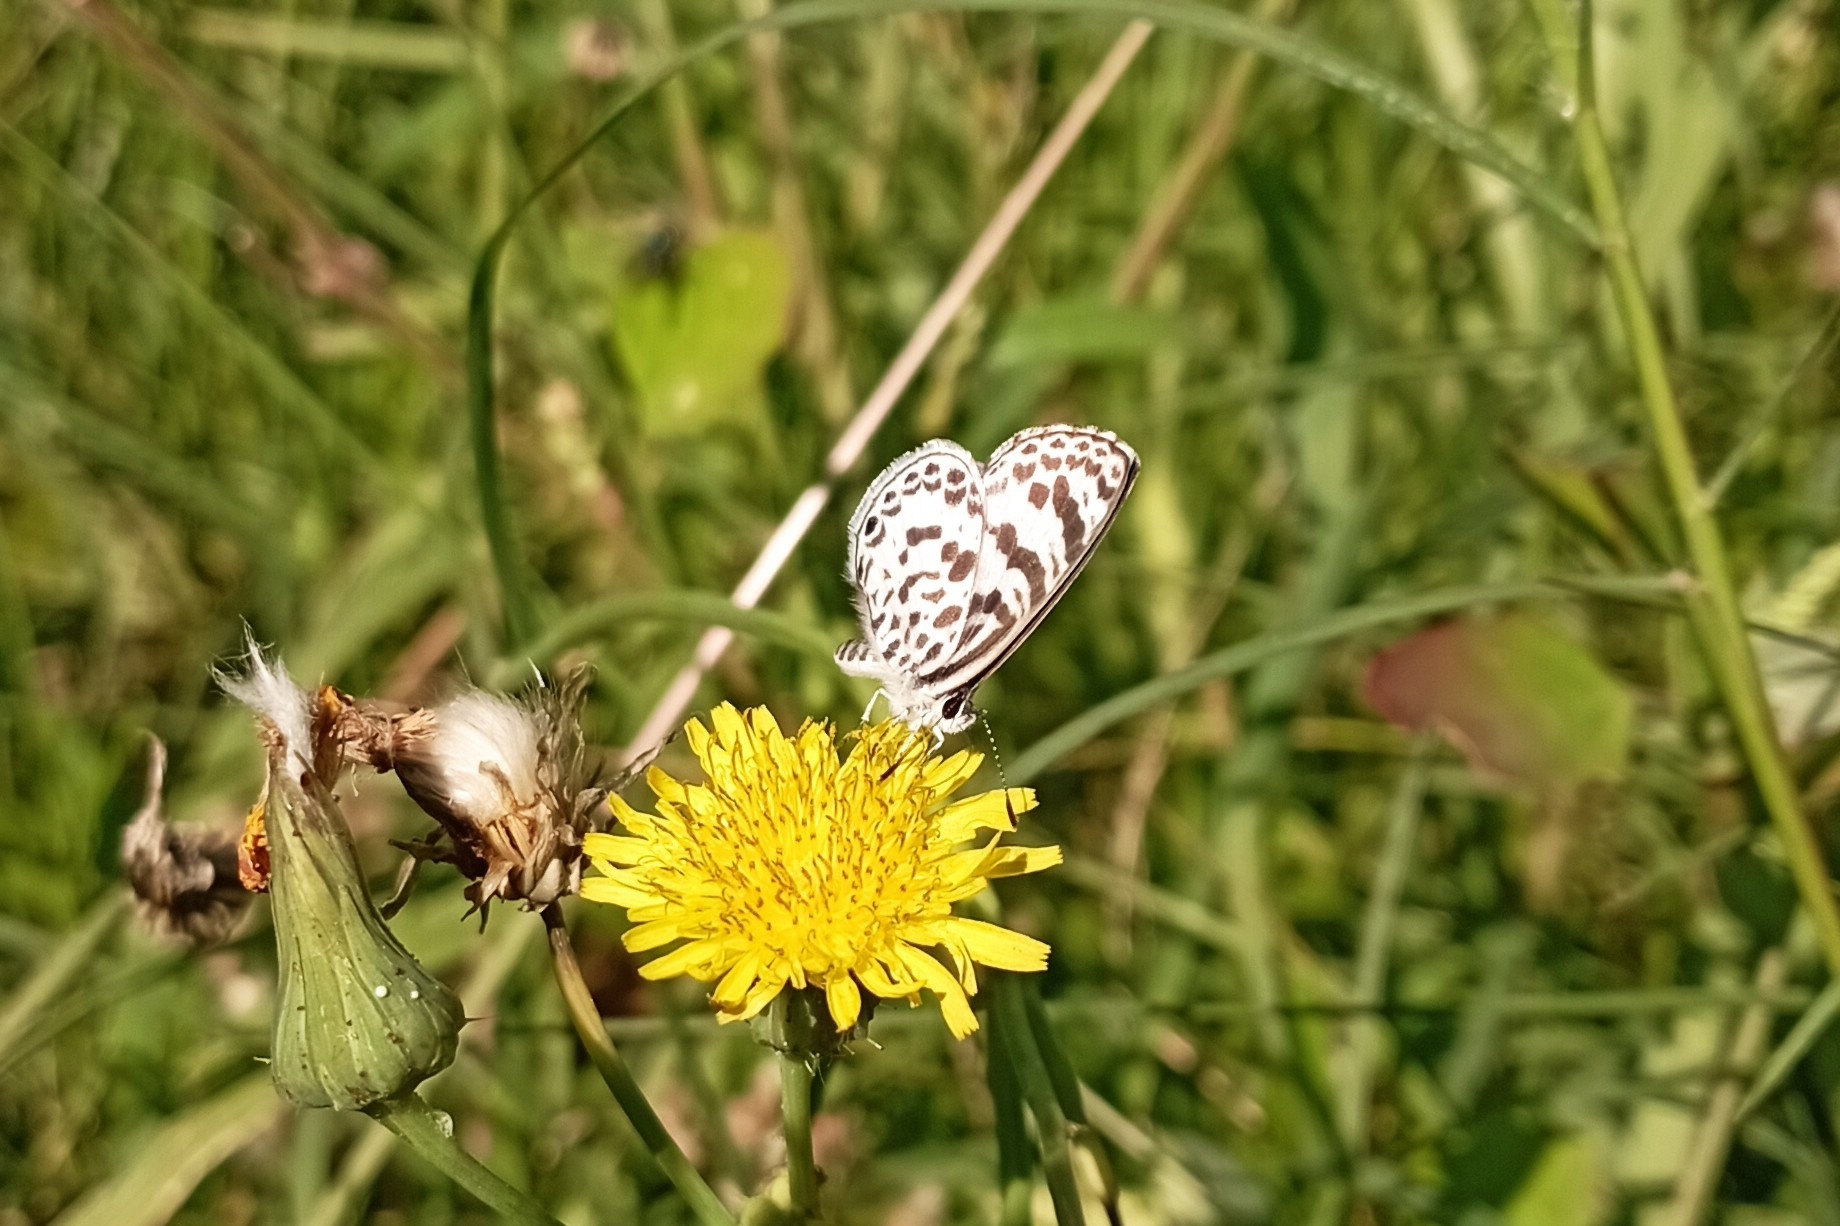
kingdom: Animalia
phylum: Arthropoda
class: Insecta
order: Lepidoptera
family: Lycaenidae
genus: Leptotes
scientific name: Leptotes cassius
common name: Cassius blue
